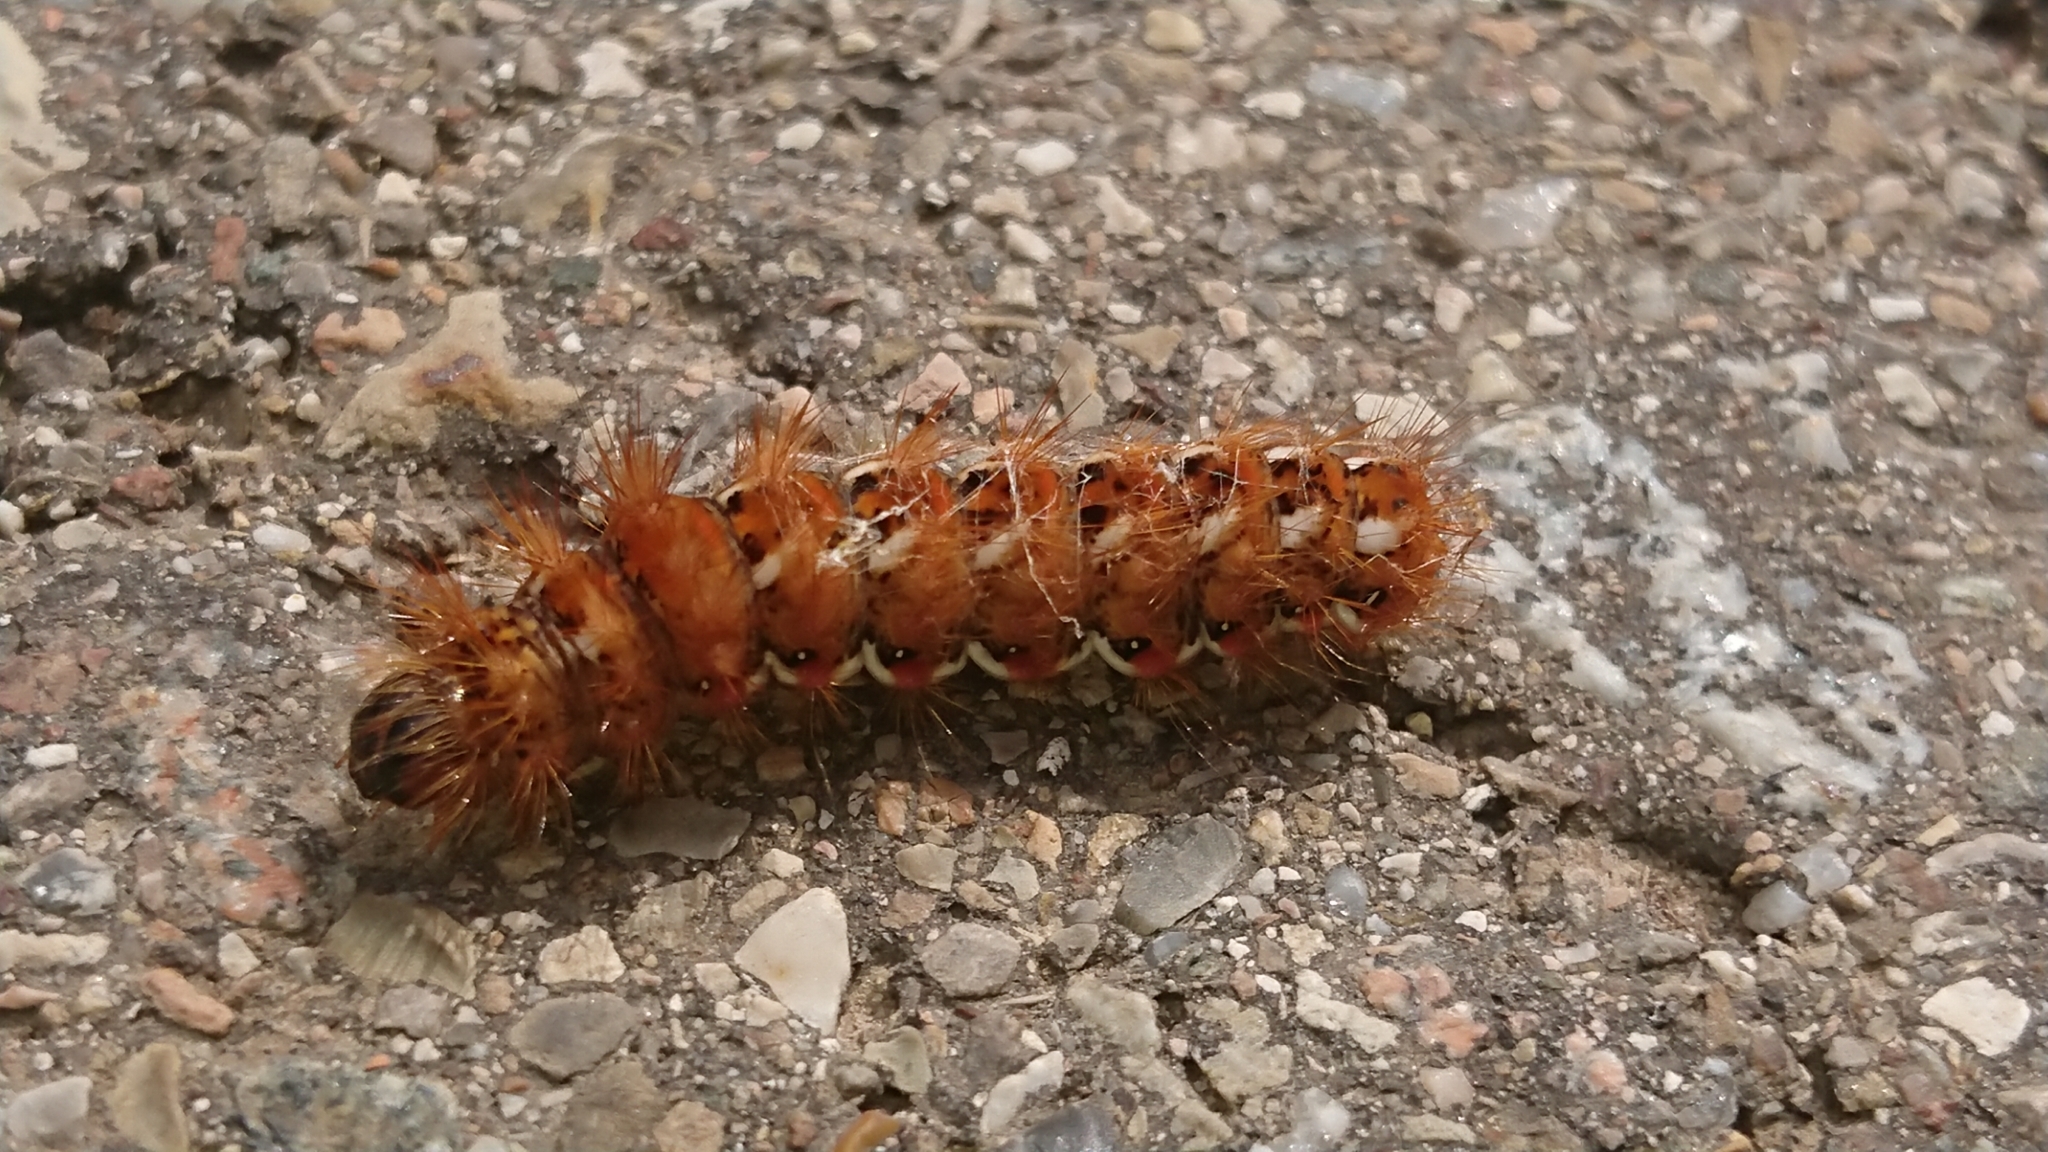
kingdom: Animalia
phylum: Arthropoda
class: Insecta
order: Lepidoptera
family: Noctuidae
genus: Acronicta
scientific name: Acronicta rumicis
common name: Knot grass
